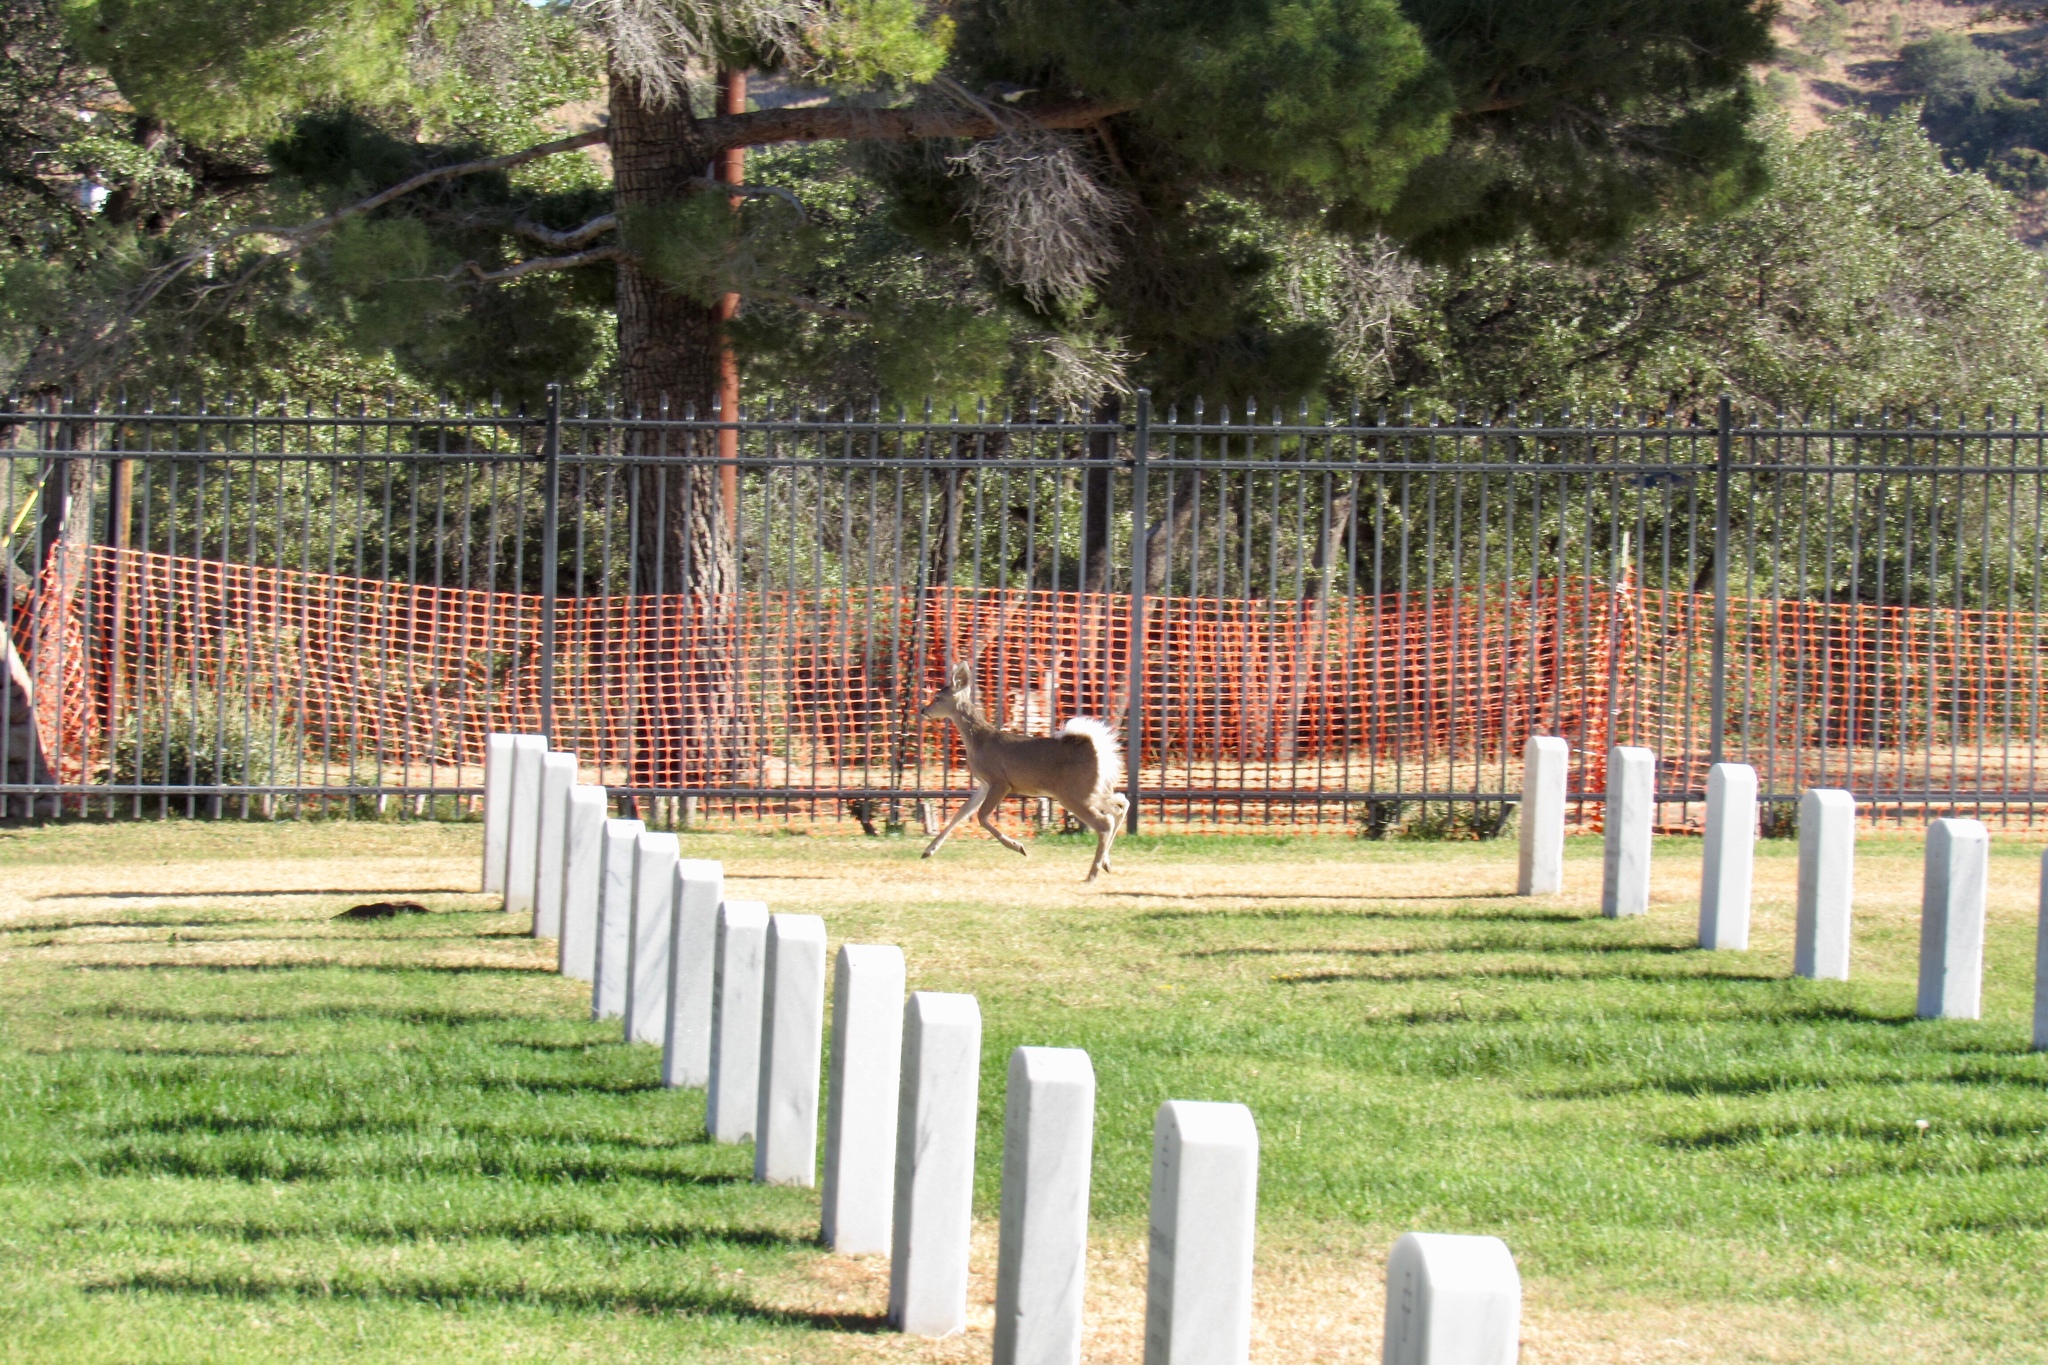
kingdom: Animalia
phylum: Chordata
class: Mammalia
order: Artiodactyla
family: Cervidae
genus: Odocoileus
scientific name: Odocoileus virginianus
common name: White-tailed deer
